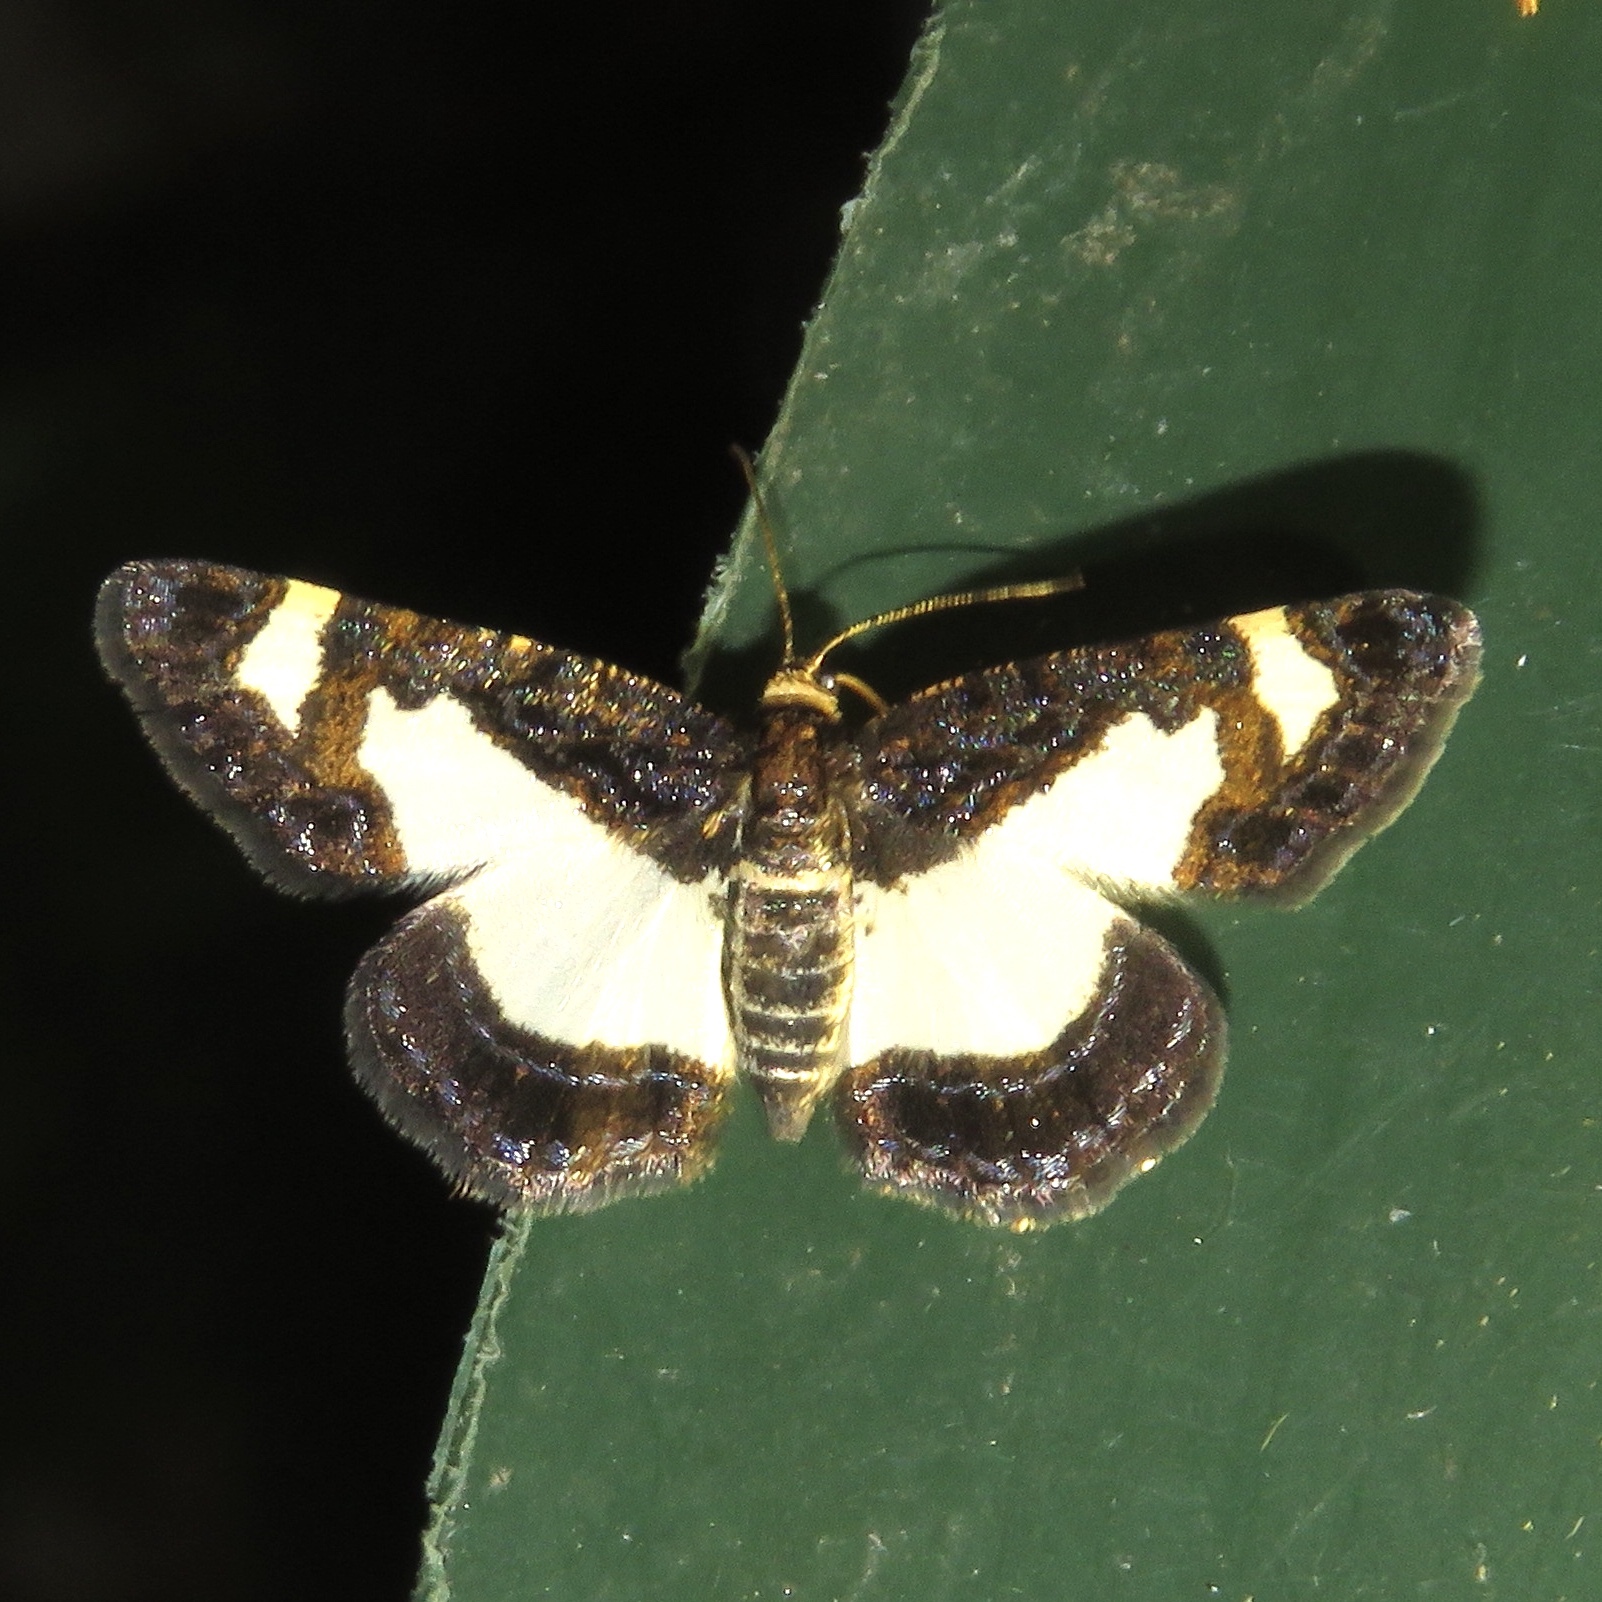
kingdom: Animalia
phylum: Arthropoda
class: Insecta
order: Lepidoptera
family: Geometridae
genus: Heliomata
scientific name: Heliomata cycladata
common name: Common spring moth
